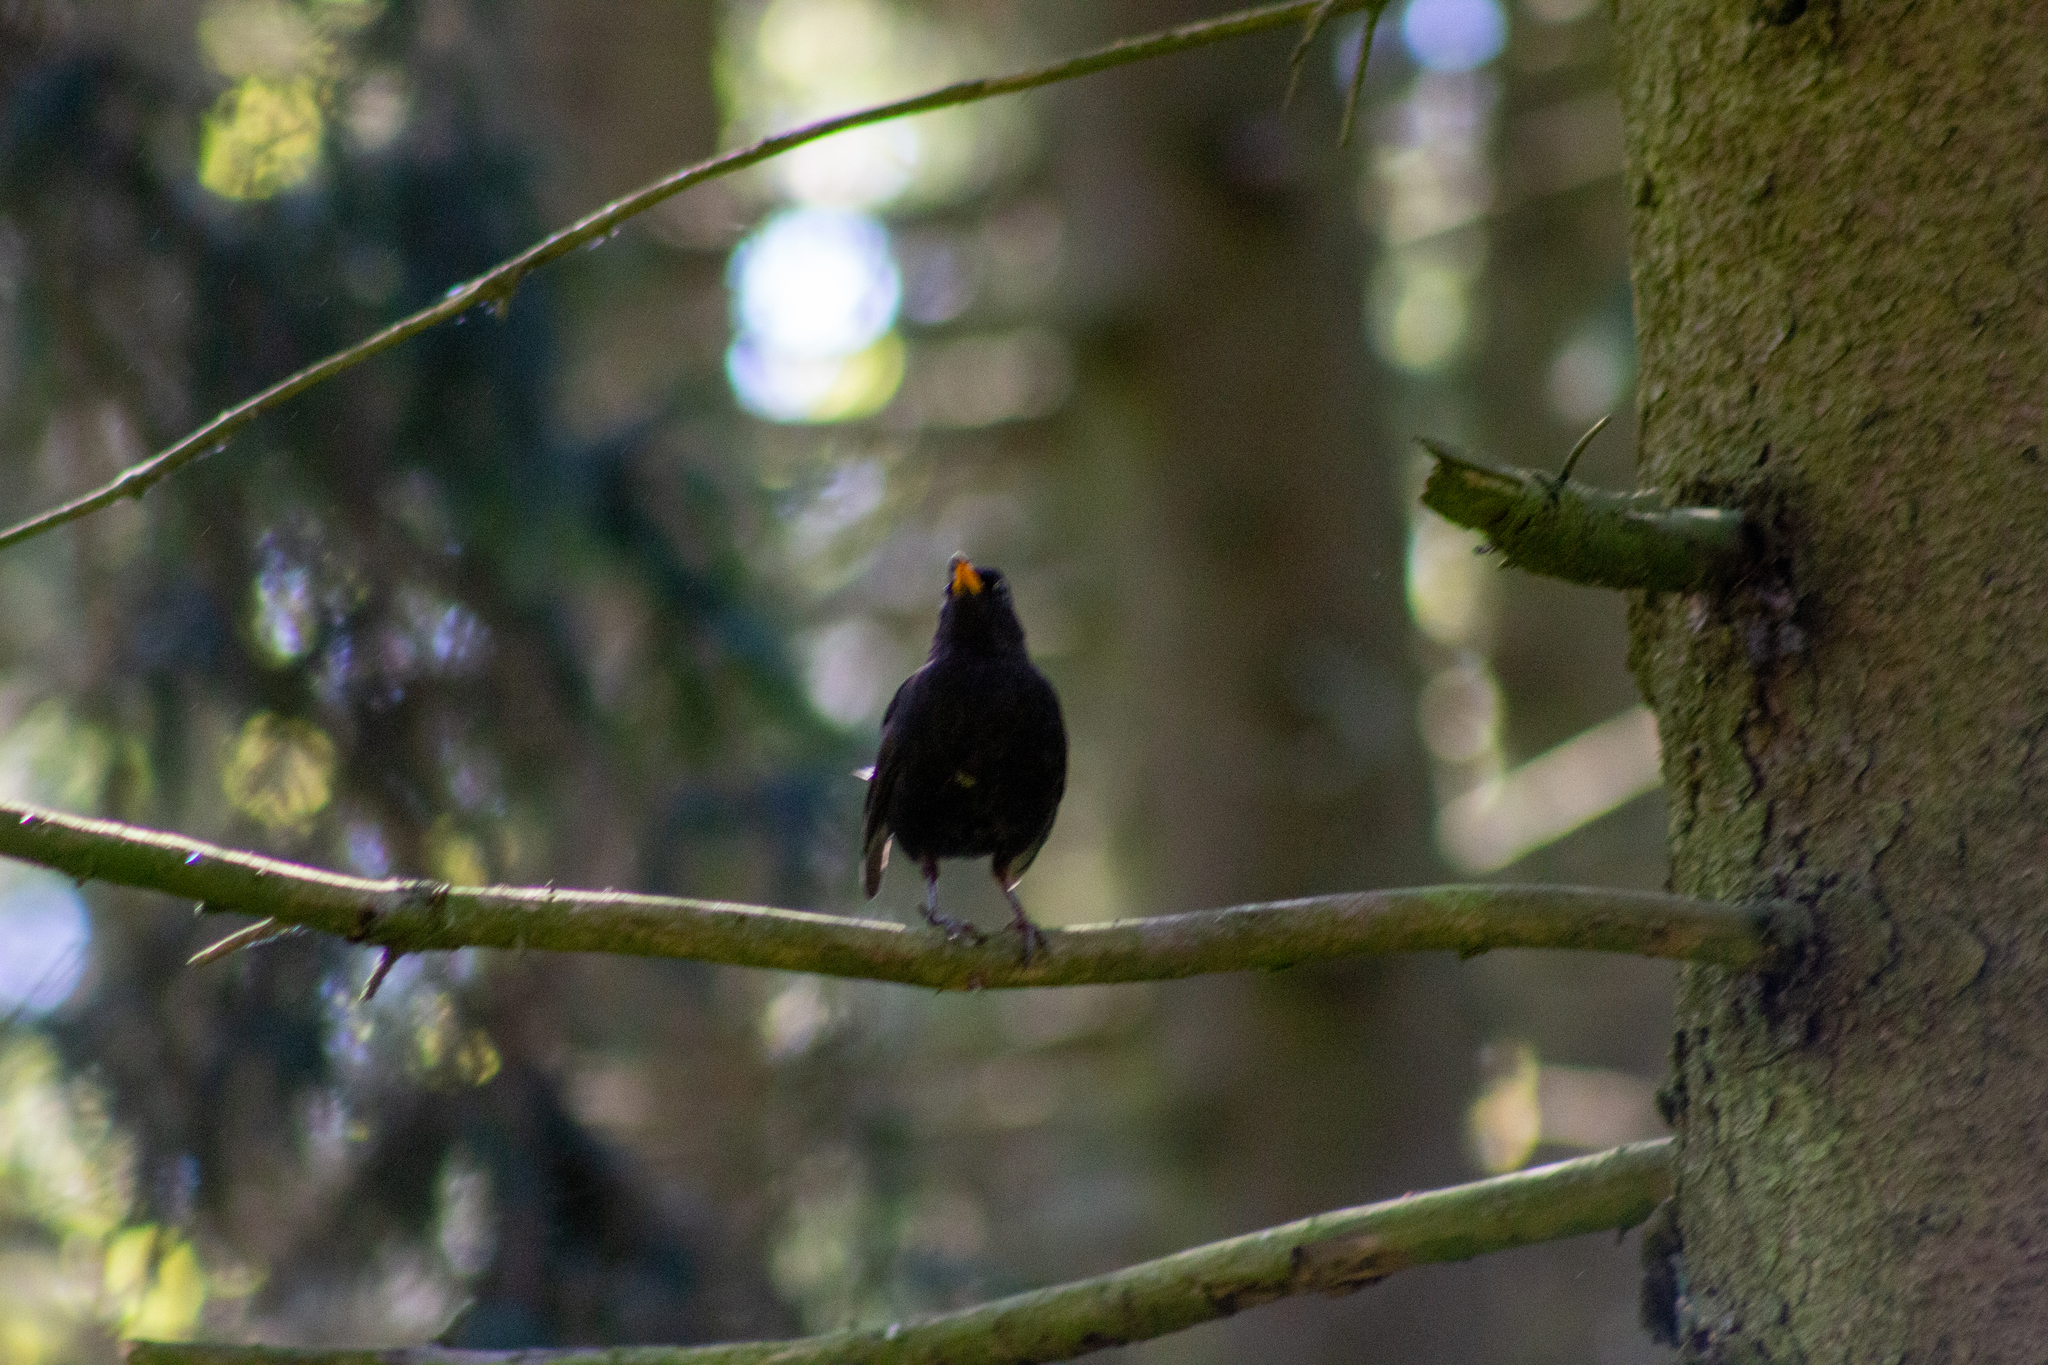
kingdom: Animalia
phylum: Chordata
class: Aves
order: Passeriformes
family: Turdidae
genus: Turdus
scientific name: Turdus merula
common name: Common blackbird
